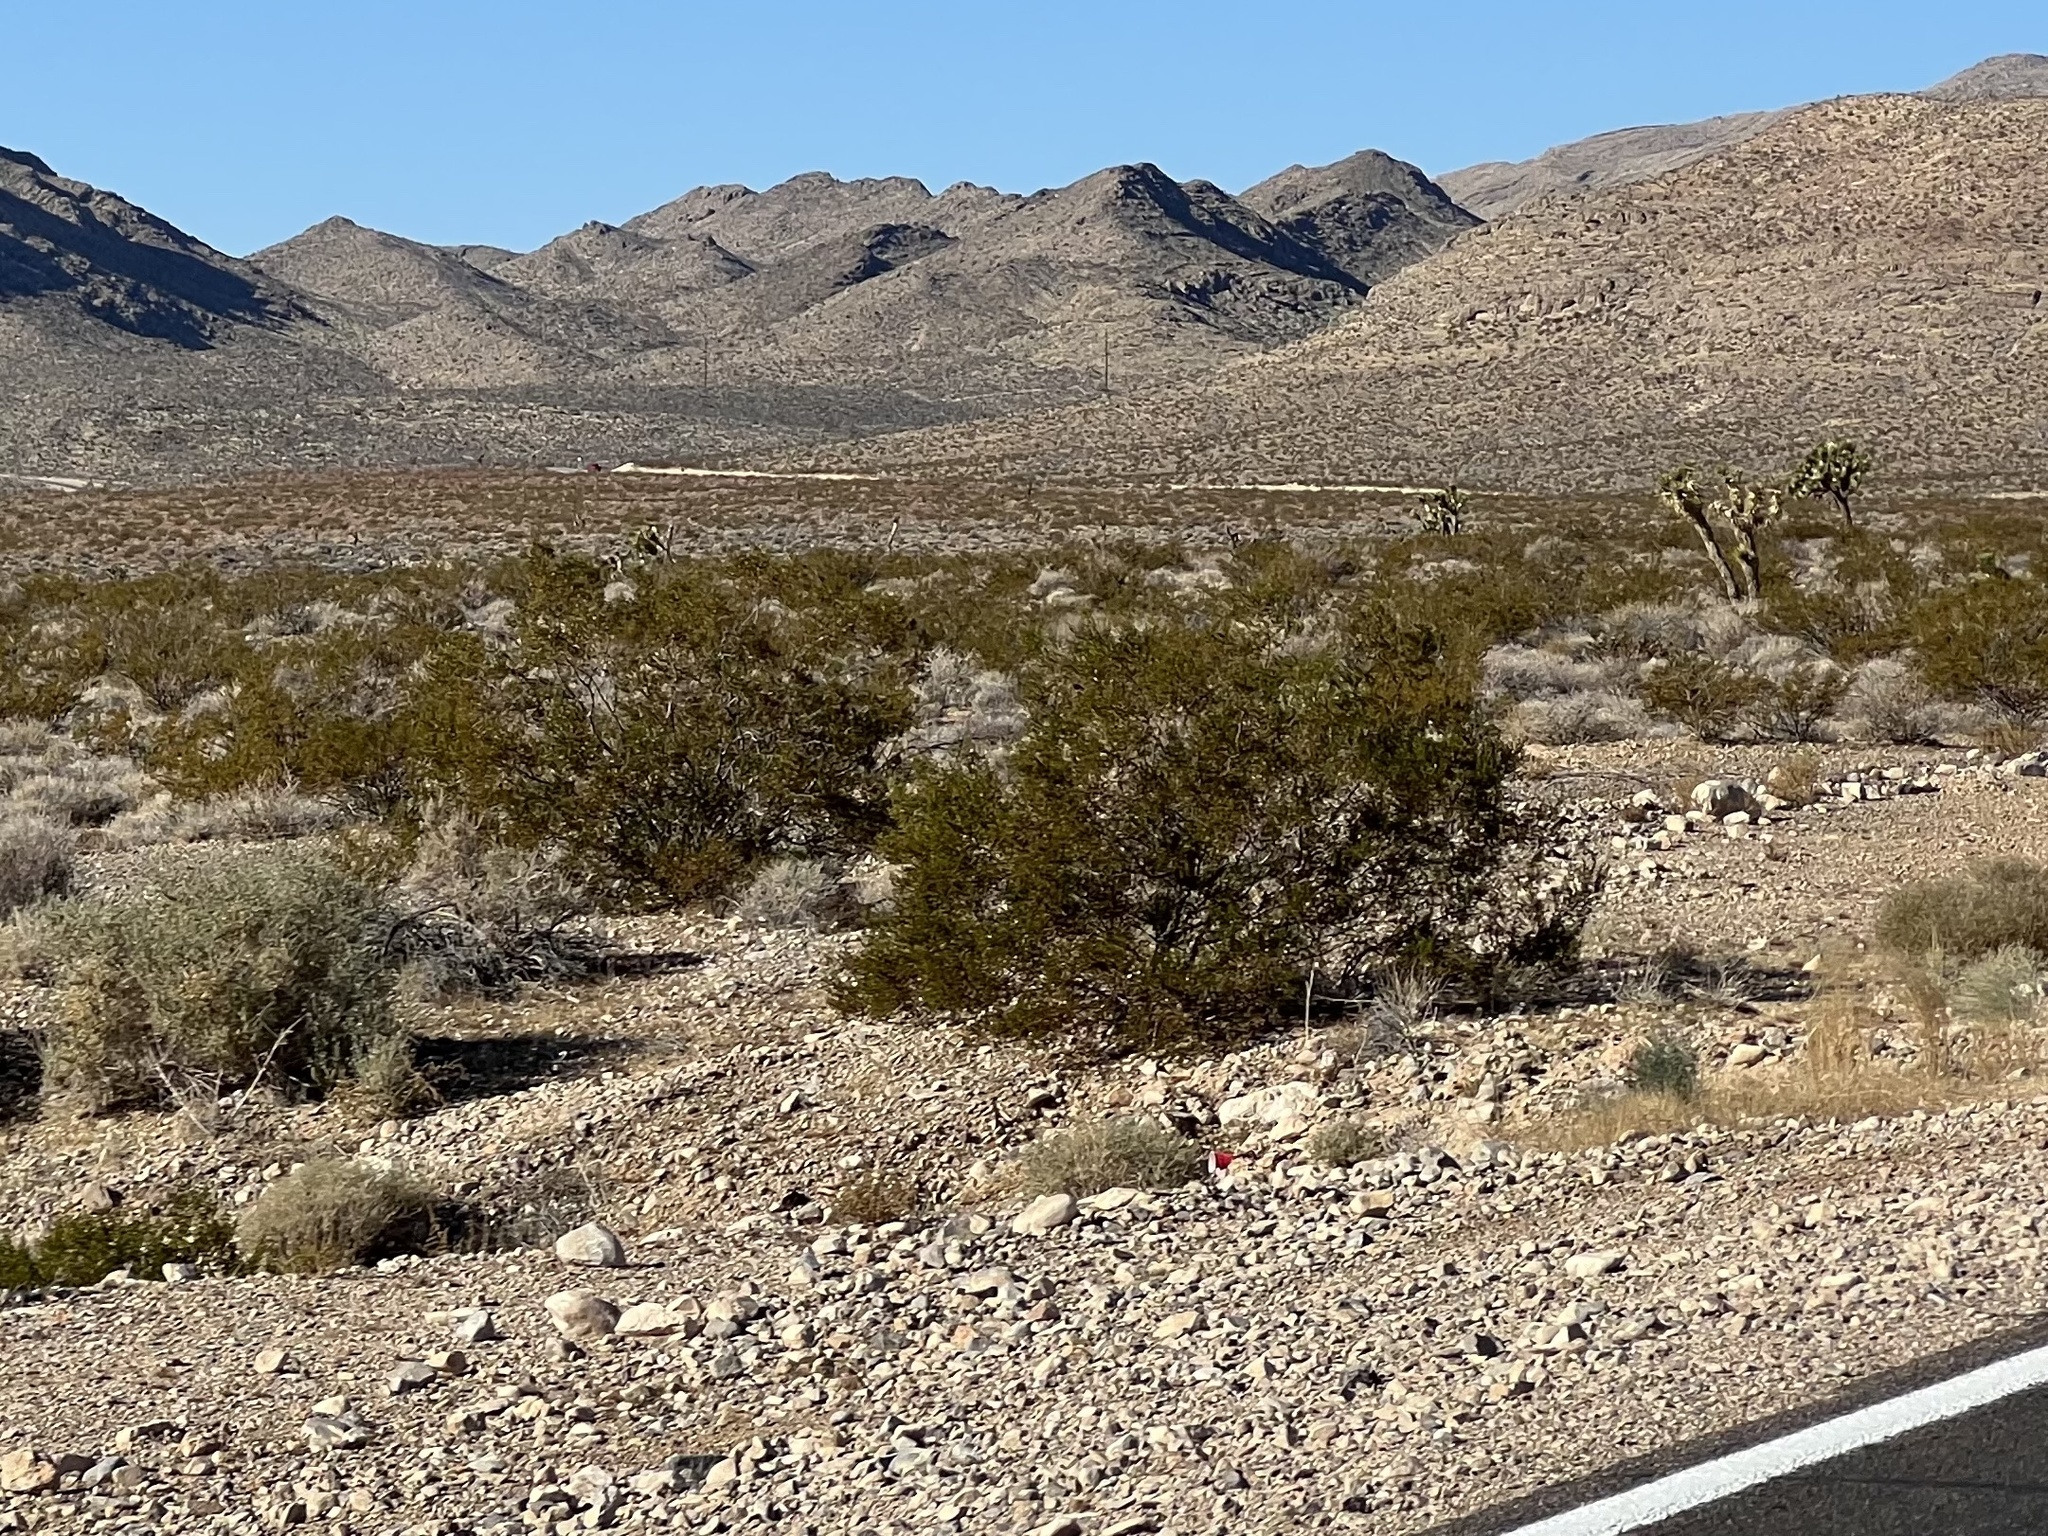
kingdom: Plantae
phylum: Tracheophyta
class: Magnoliopsida
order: Zygophyllales
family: Zygophyllaceae
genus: Larrea
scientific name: Larrea tridentata
